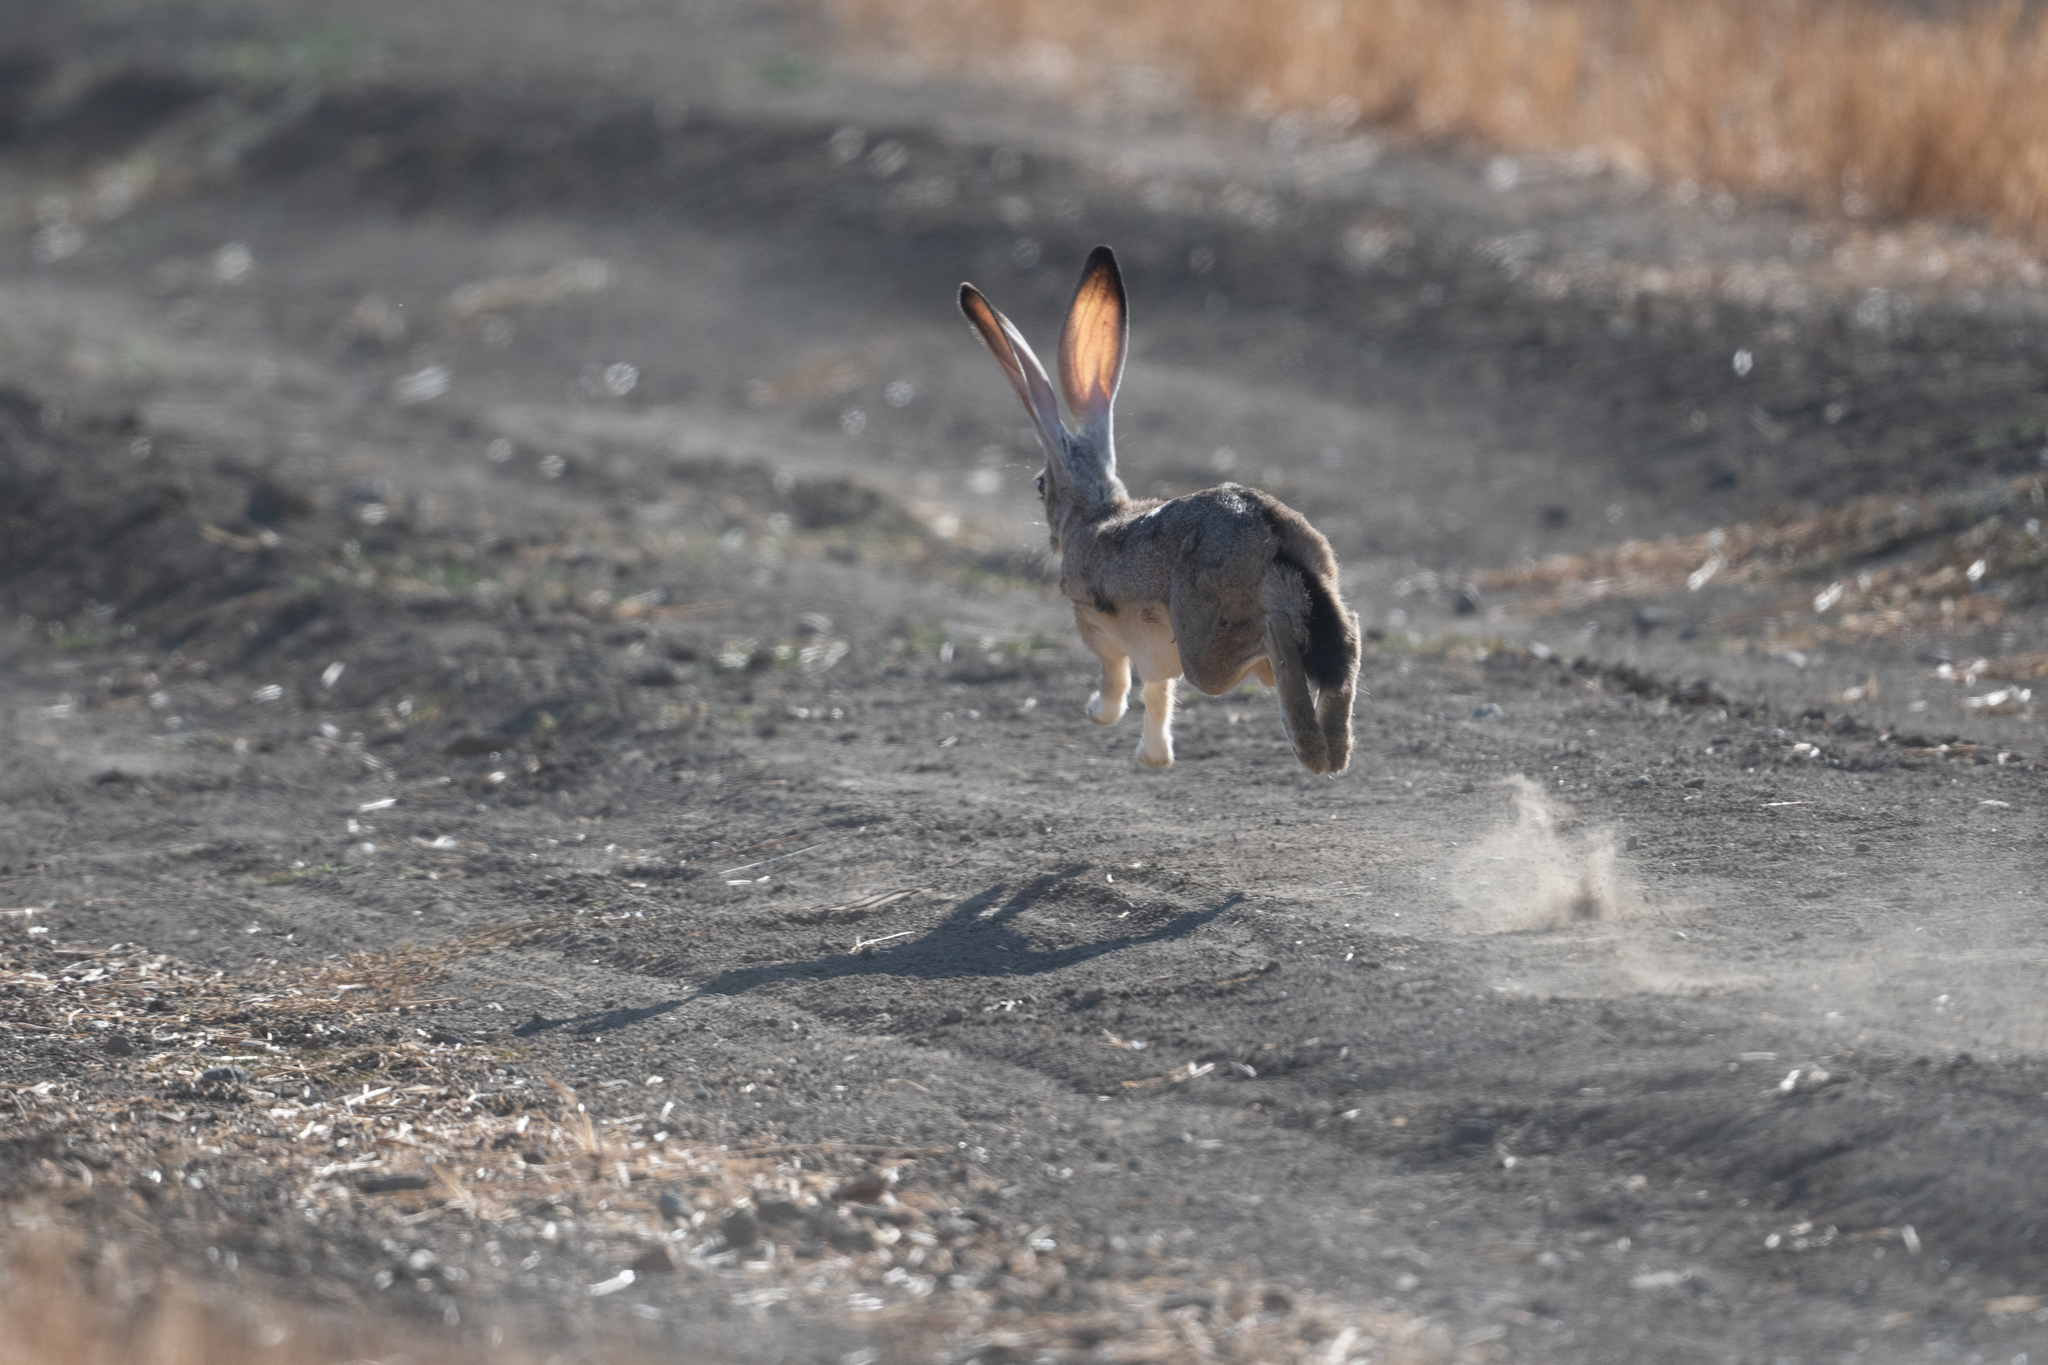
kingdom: Animalia
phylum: Chordata
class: Mammalia
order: Lagomorpha
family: Leporidae
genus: Lepus
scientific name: Lepus californicus
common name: Black-tailed jackrabbit
